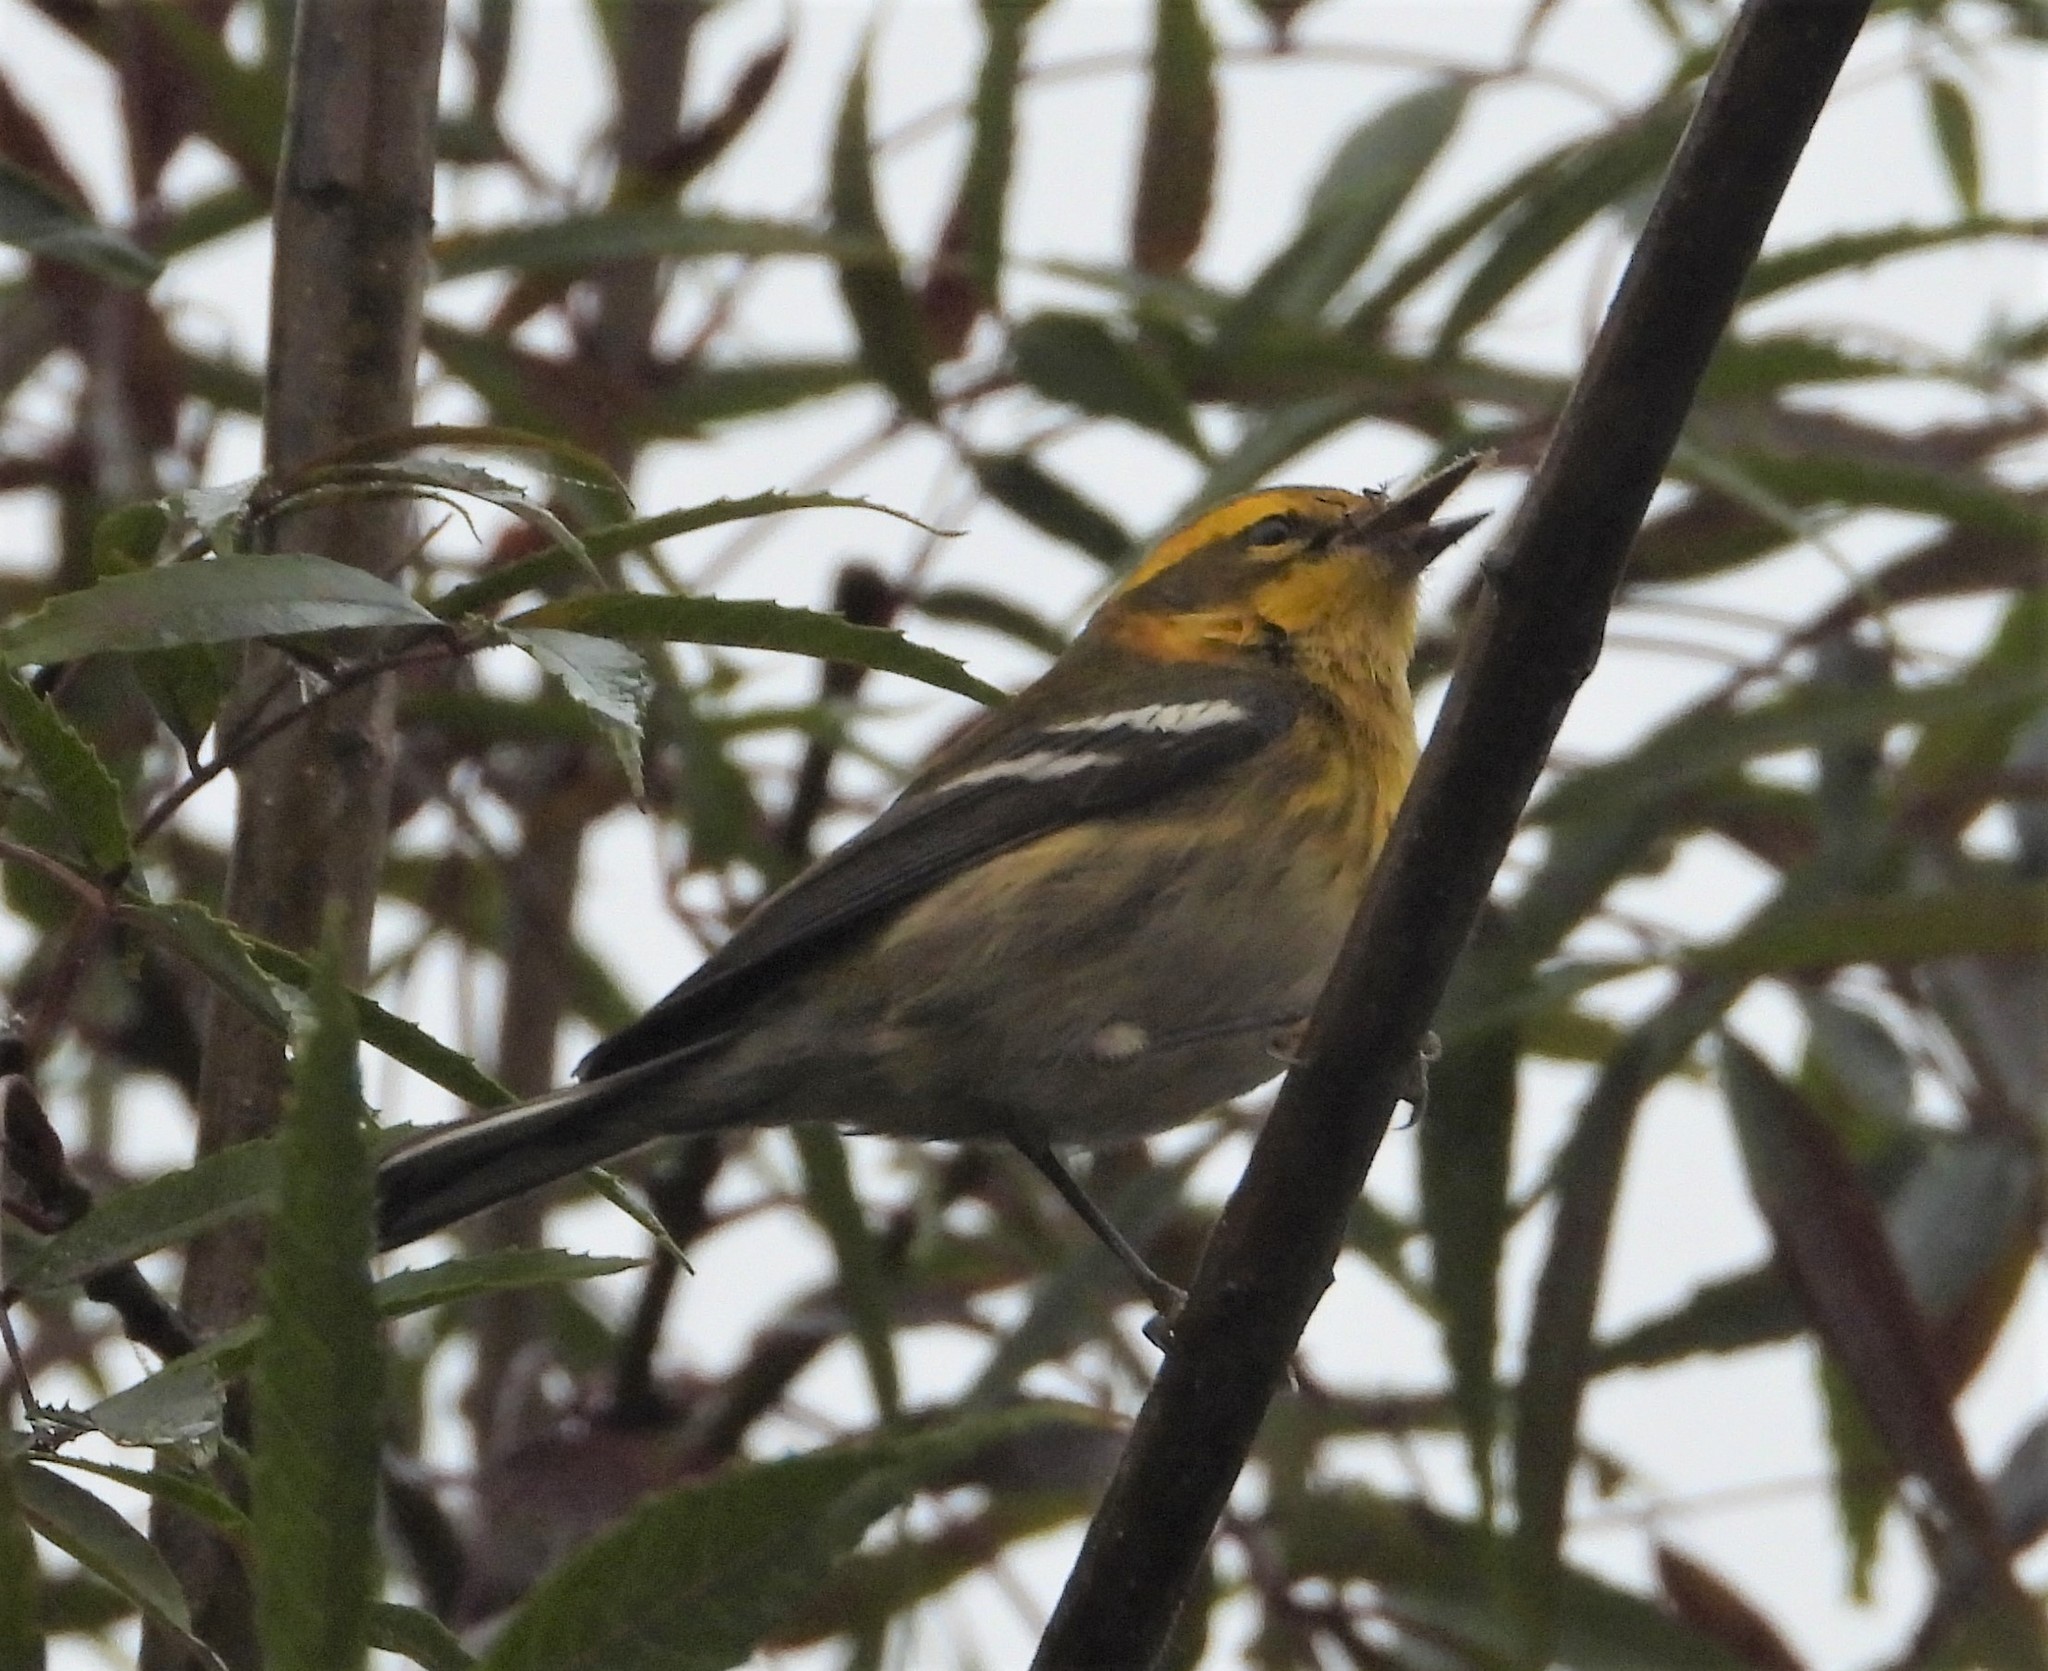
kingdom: Animalia
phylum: Chordata
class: Aves
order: Passeriformes
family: Parulidae
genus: Setophaga
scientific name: Setophaga townsendi
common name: Townsend's warbler
